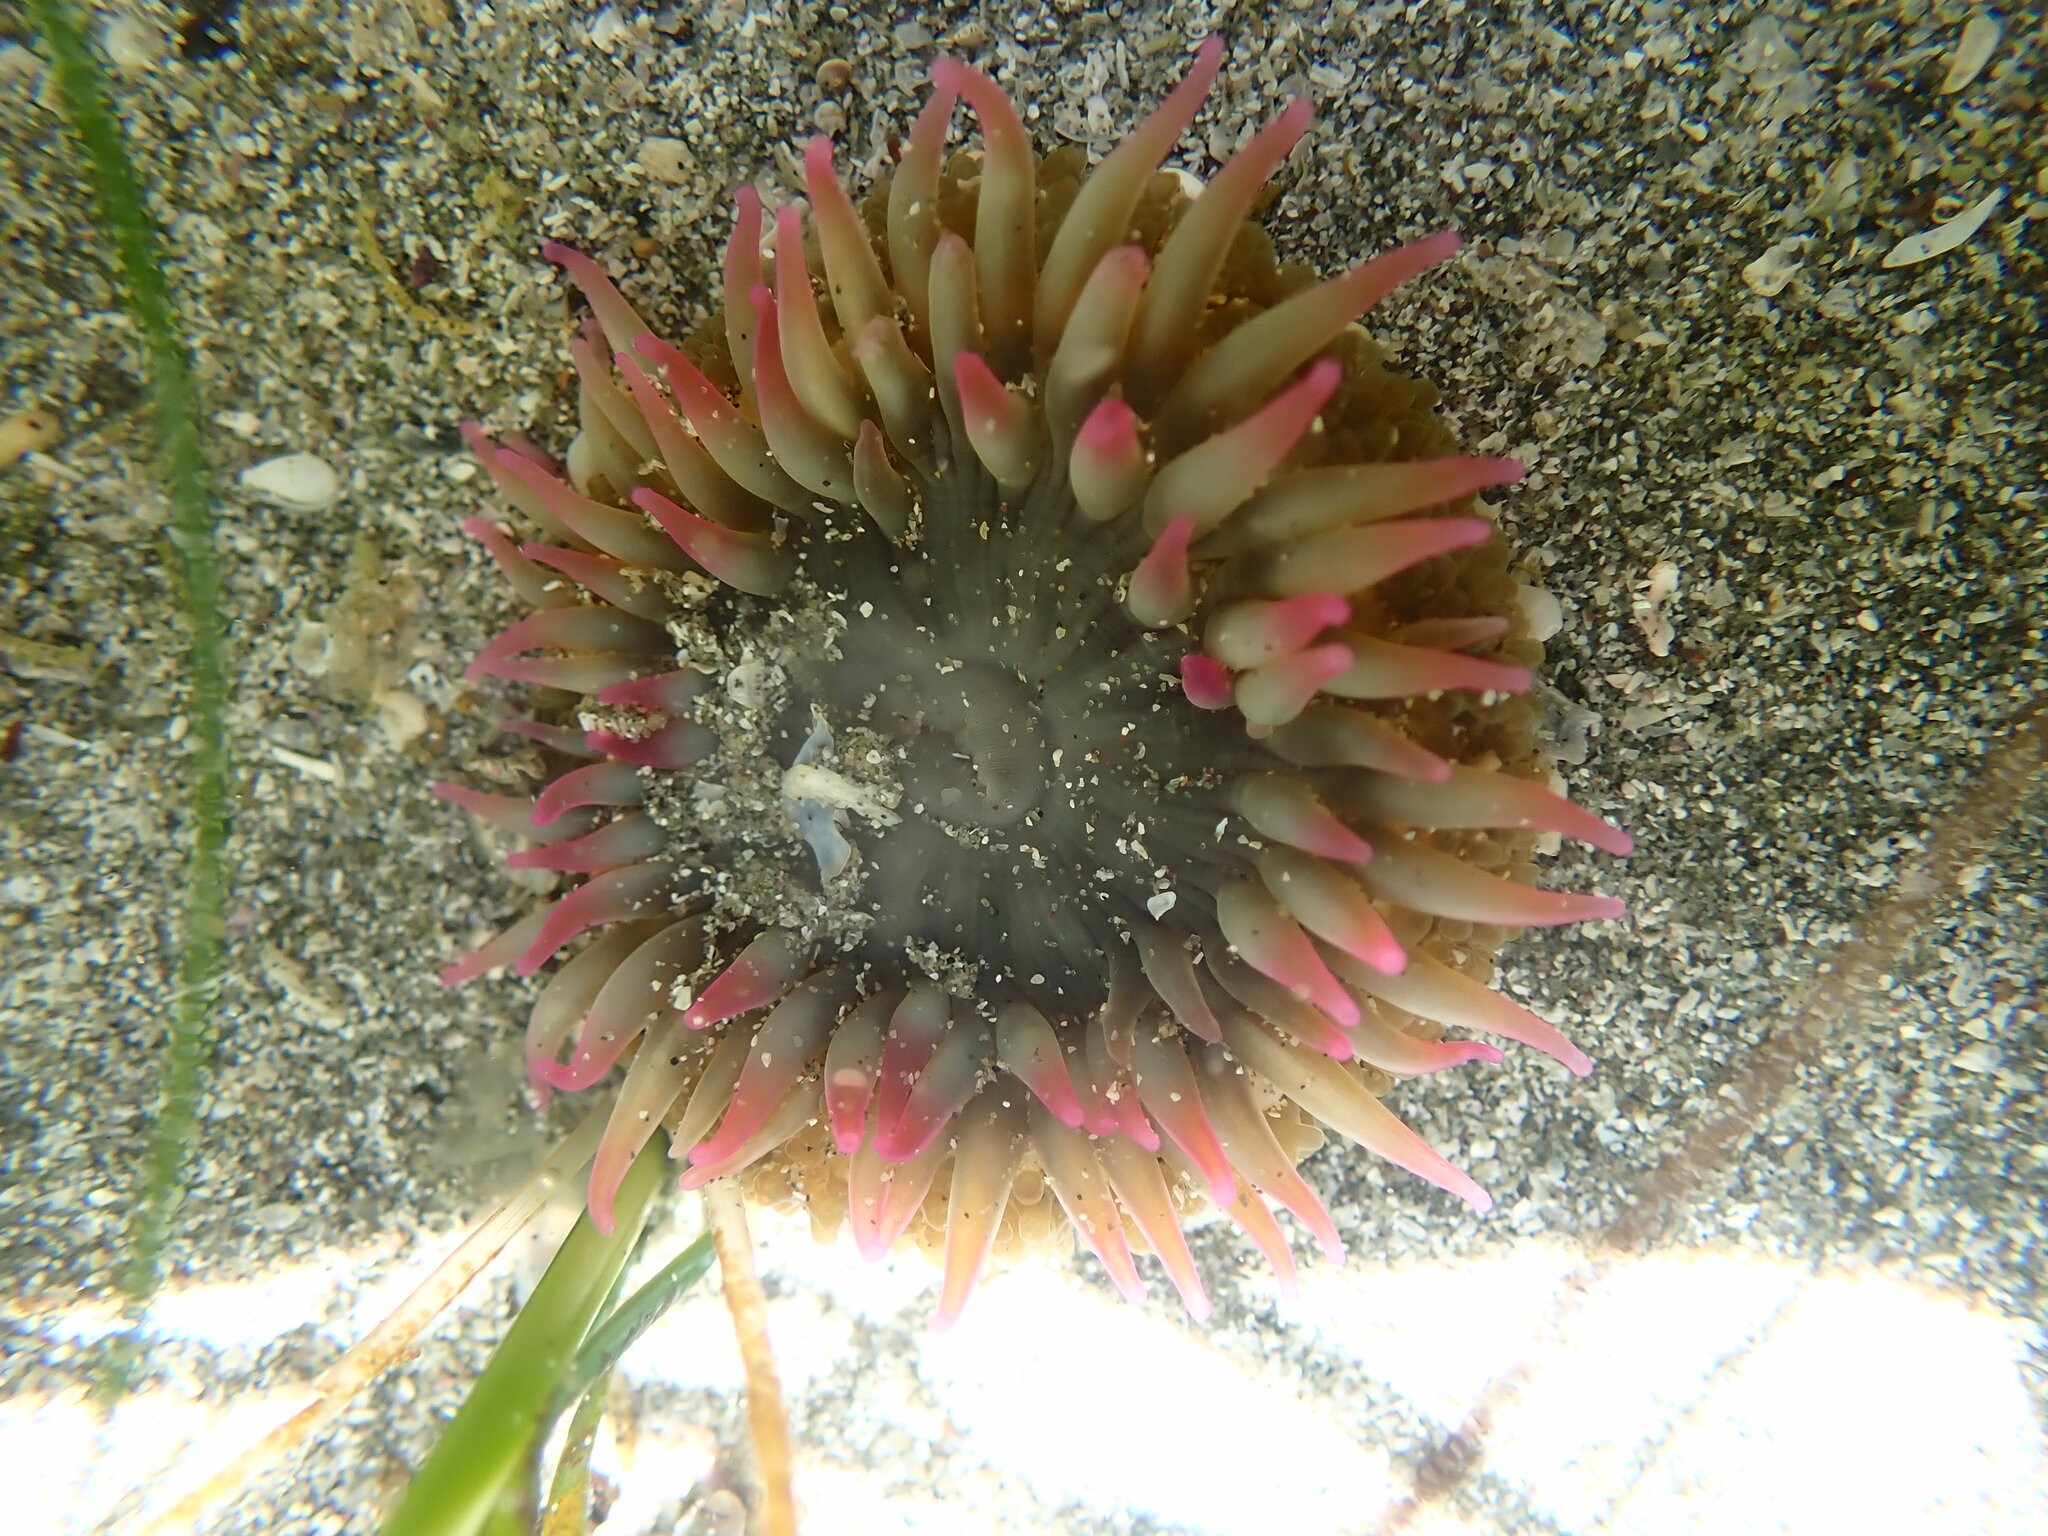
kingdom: Animalia
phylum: Cnidaria
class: Anthozoa
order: Actiniaria
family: Actiniidae
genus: Anthopleura
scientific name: Anthopleura elegantissima
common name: Clonal anemone
